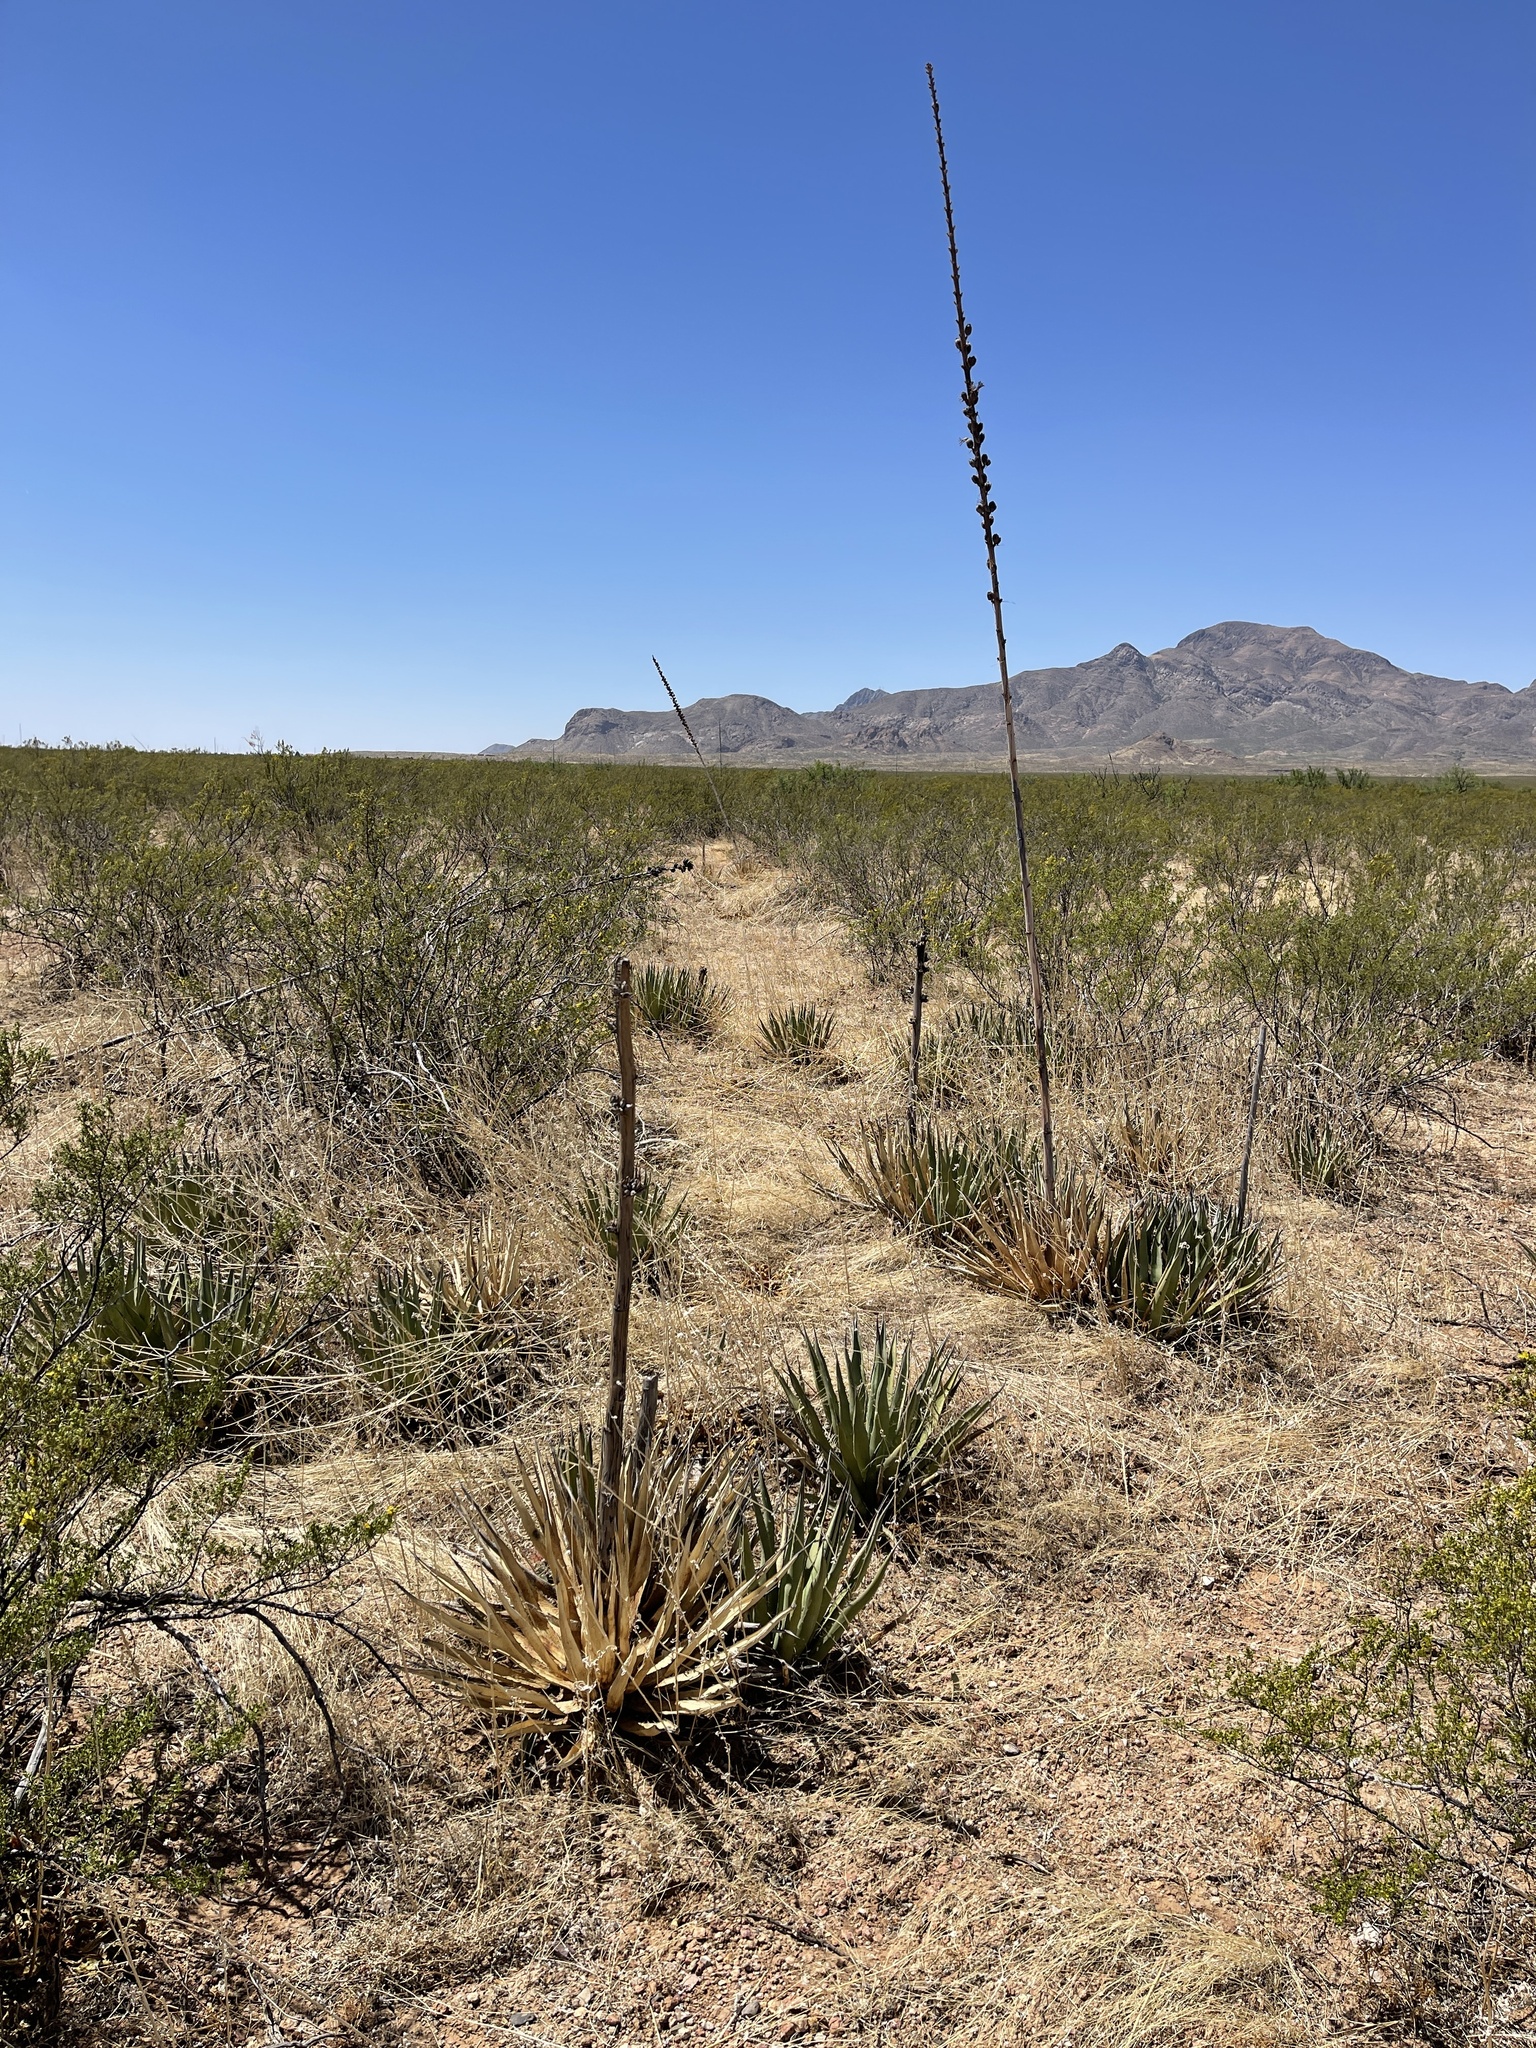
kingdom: Plantae
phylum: Tracheophyta
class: Liliopsida
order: Asparagales
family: Asparagaceae
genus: Agave
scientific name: Agave lechuguilla
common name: Lecheguilla agave
